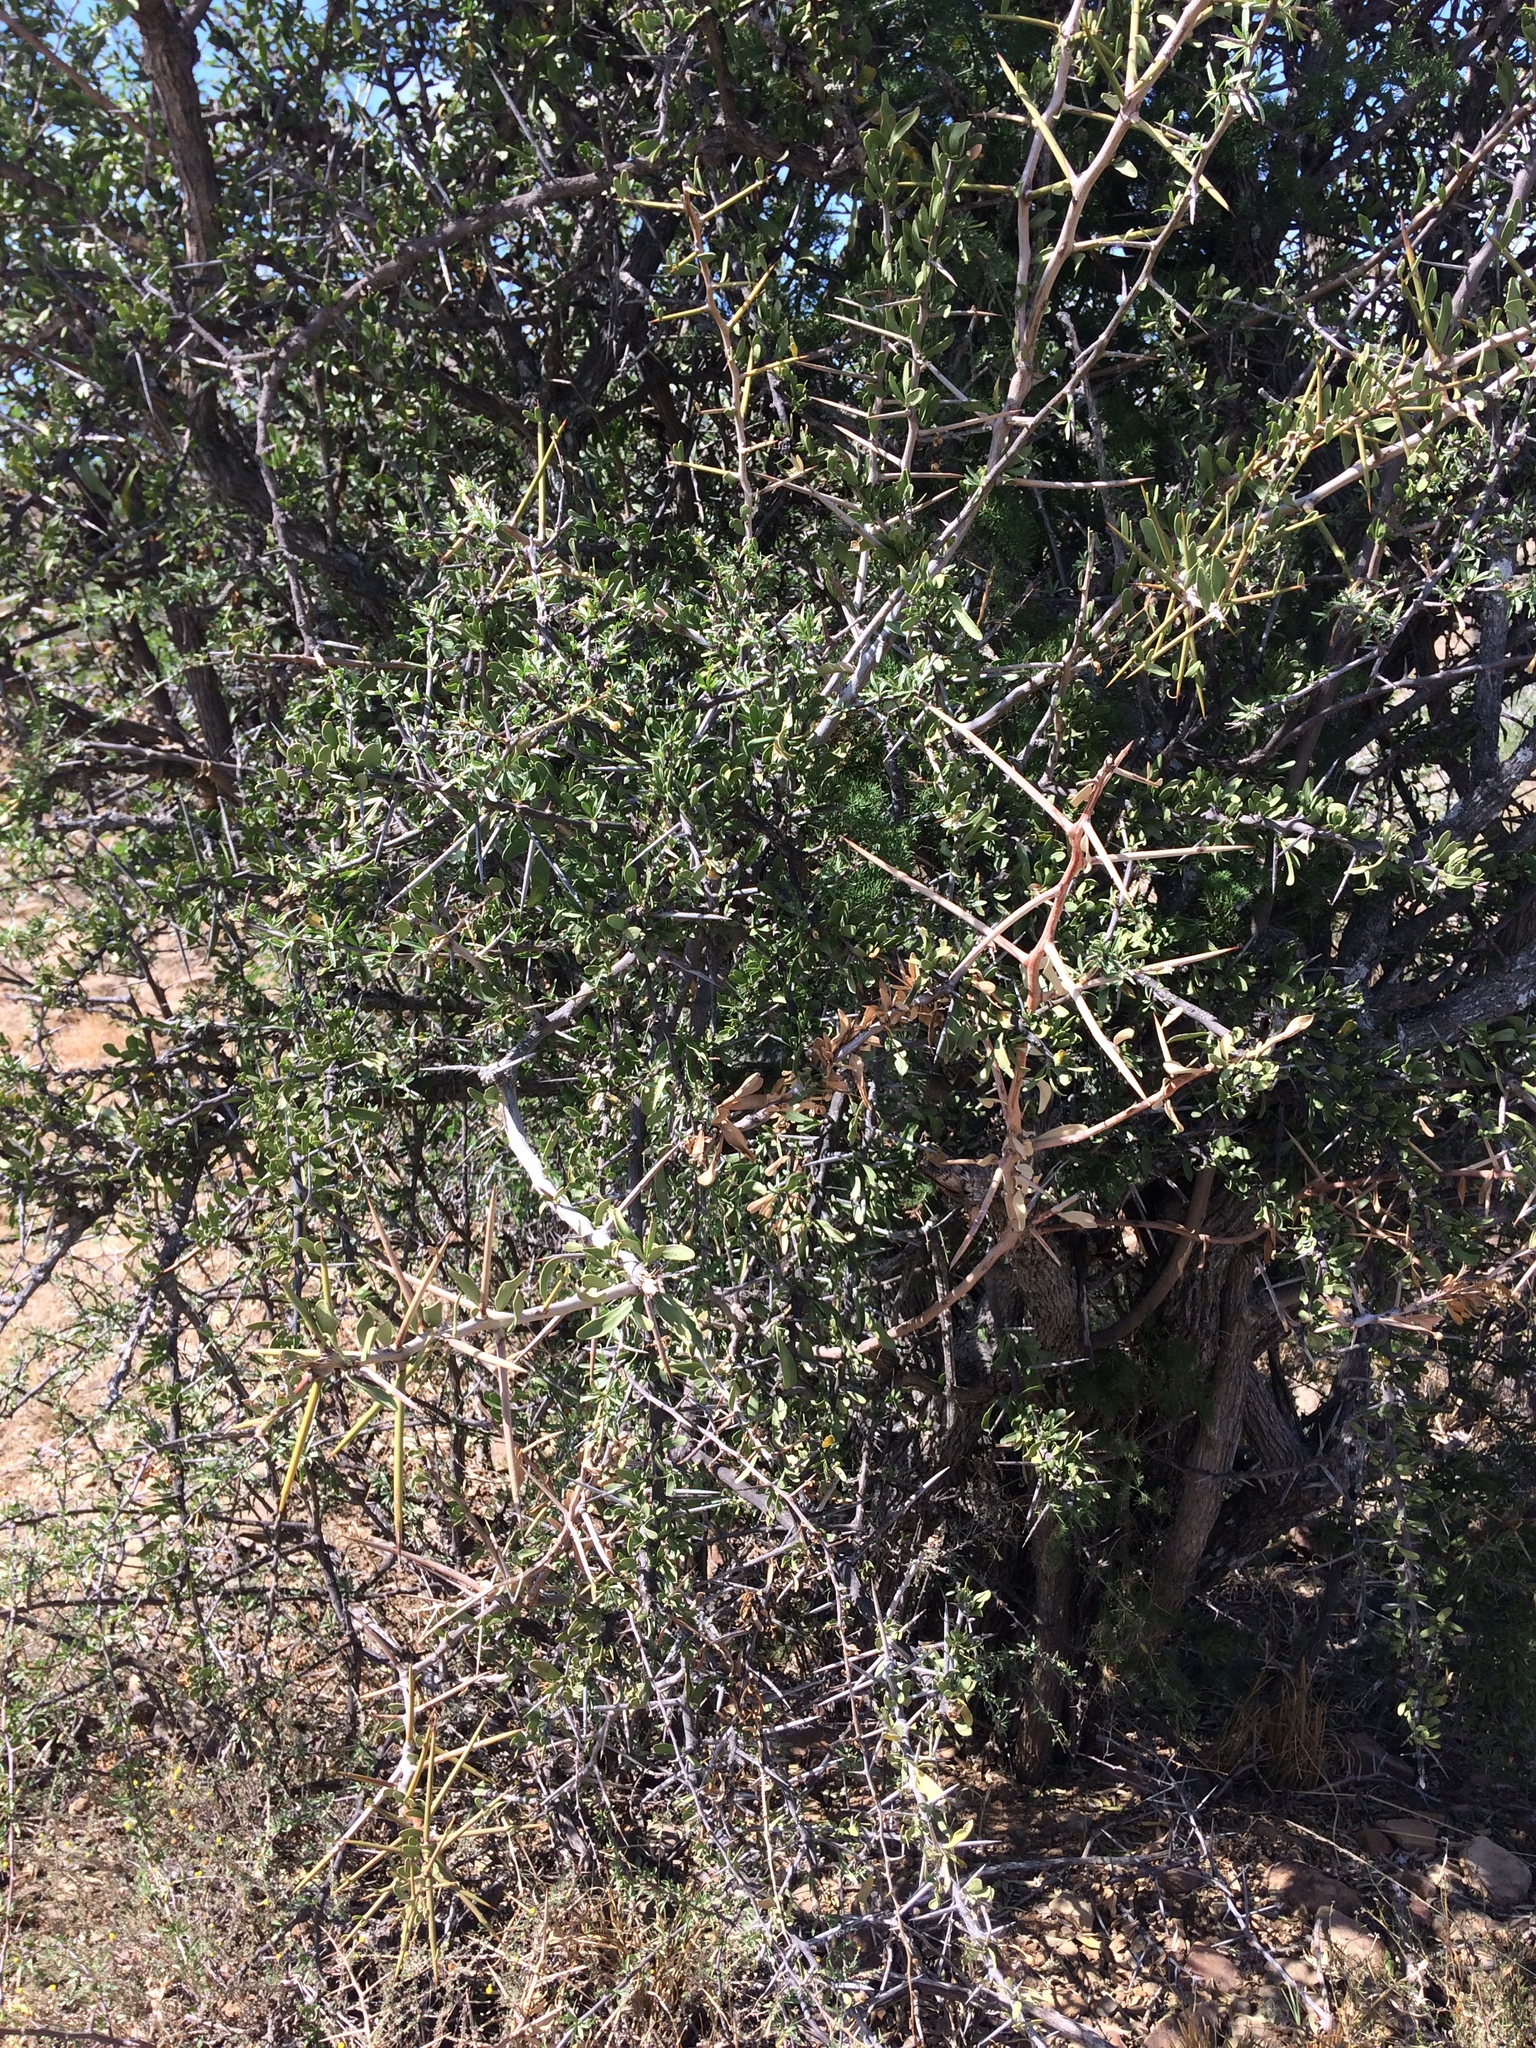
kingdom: Plantae
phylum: Tracheophyta
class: Magnoliopsida
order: Celastrales
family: Celastraceae
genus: Gymnosporia
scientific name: Gymnosporia
